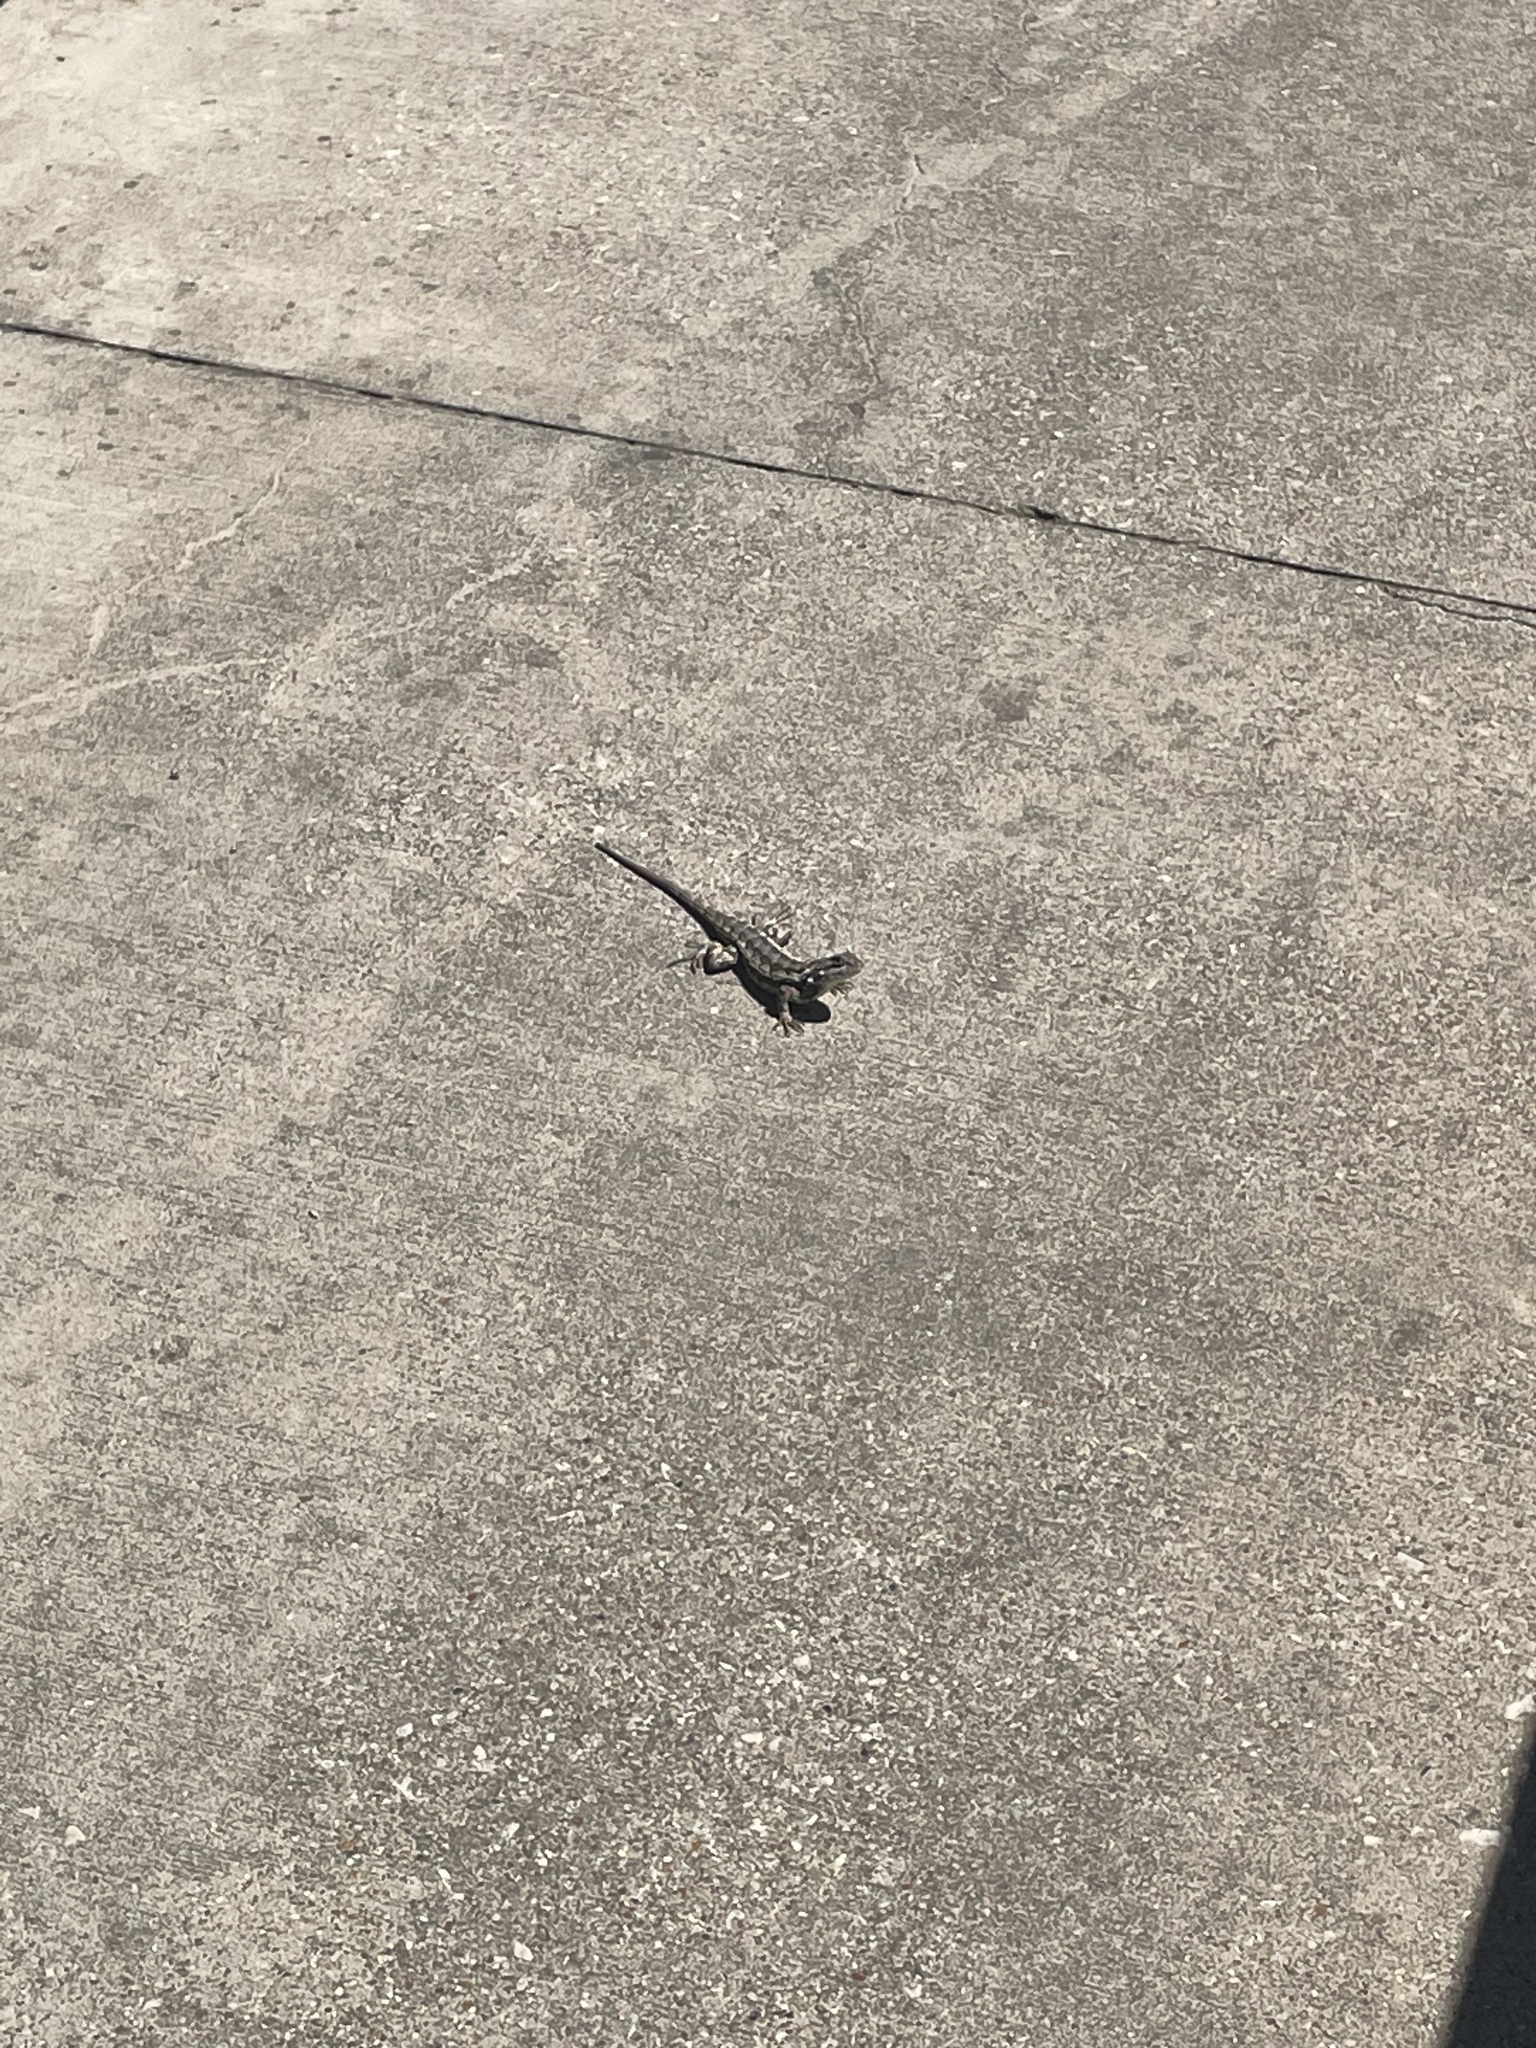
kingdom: Animalia
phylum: Chordata
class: Squamata
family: Phrynosomatidae
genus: Sceloporus
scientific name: Sceloporus olivaceus
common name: Texas spiny lizard
